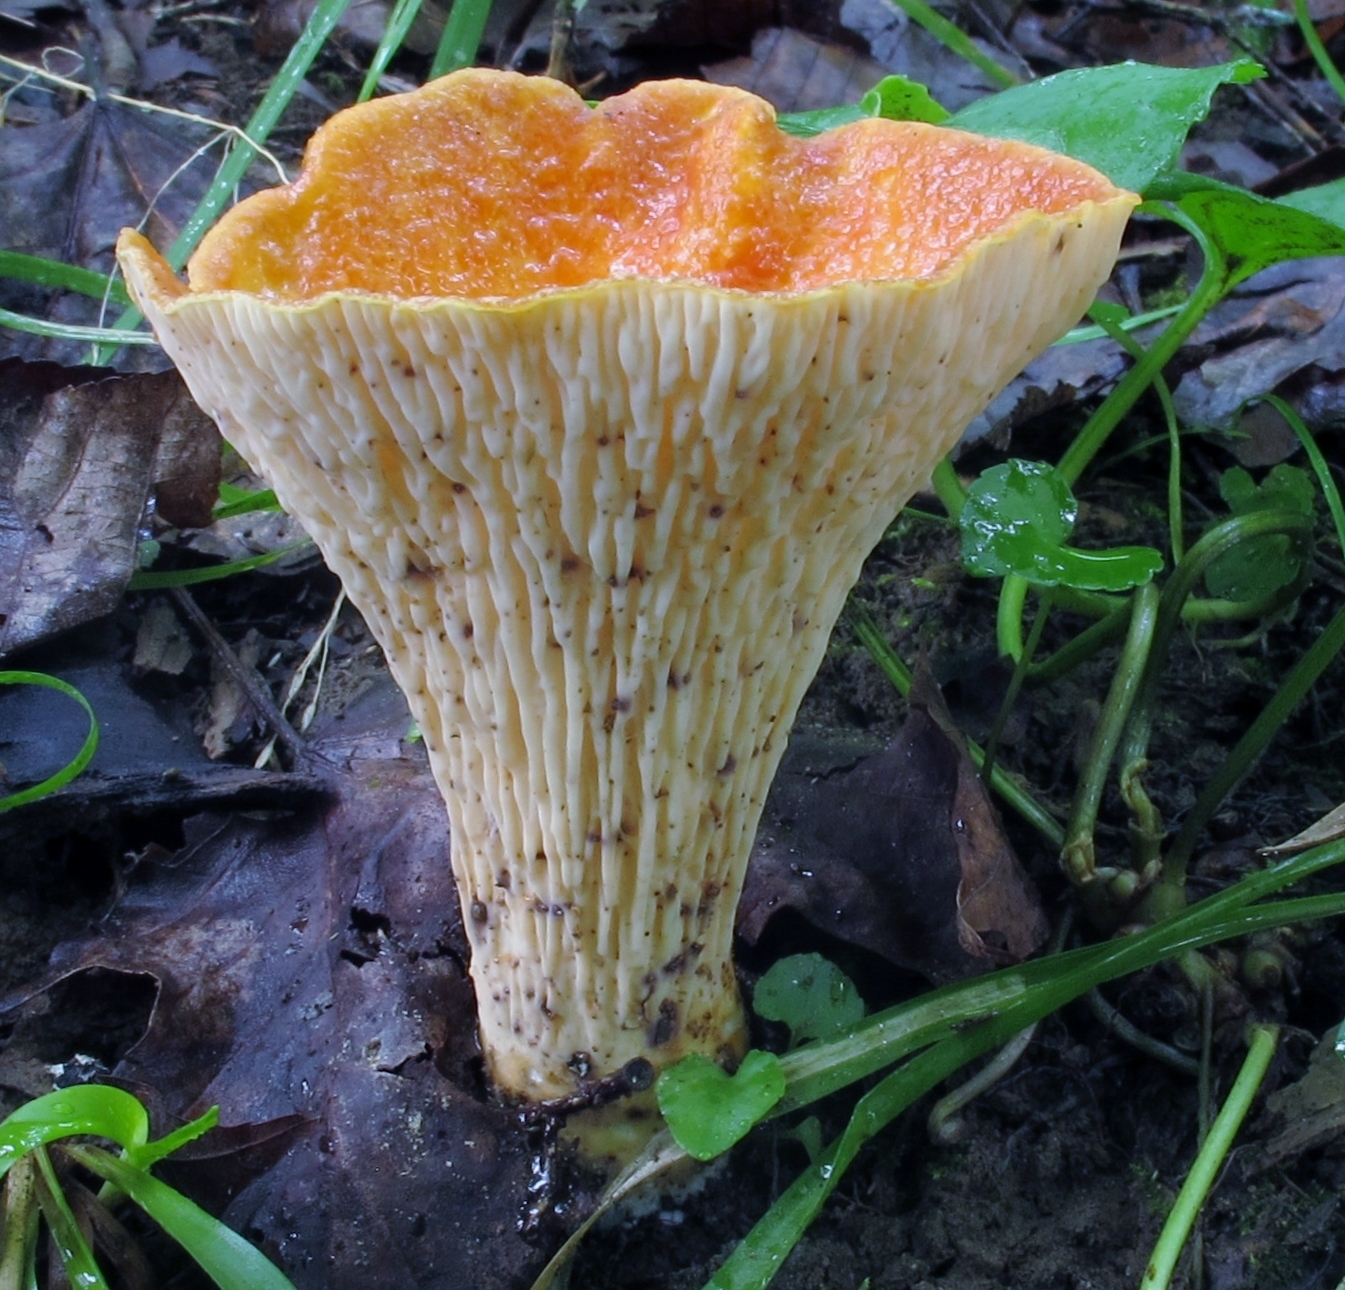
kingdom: Fungi
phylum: Basidiomycota
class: Agaricomycetes
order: Gomphales
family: Gomphaceae
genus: Turbinellus
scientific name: Turbinellus floccosus
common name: Scaly chanterelle
